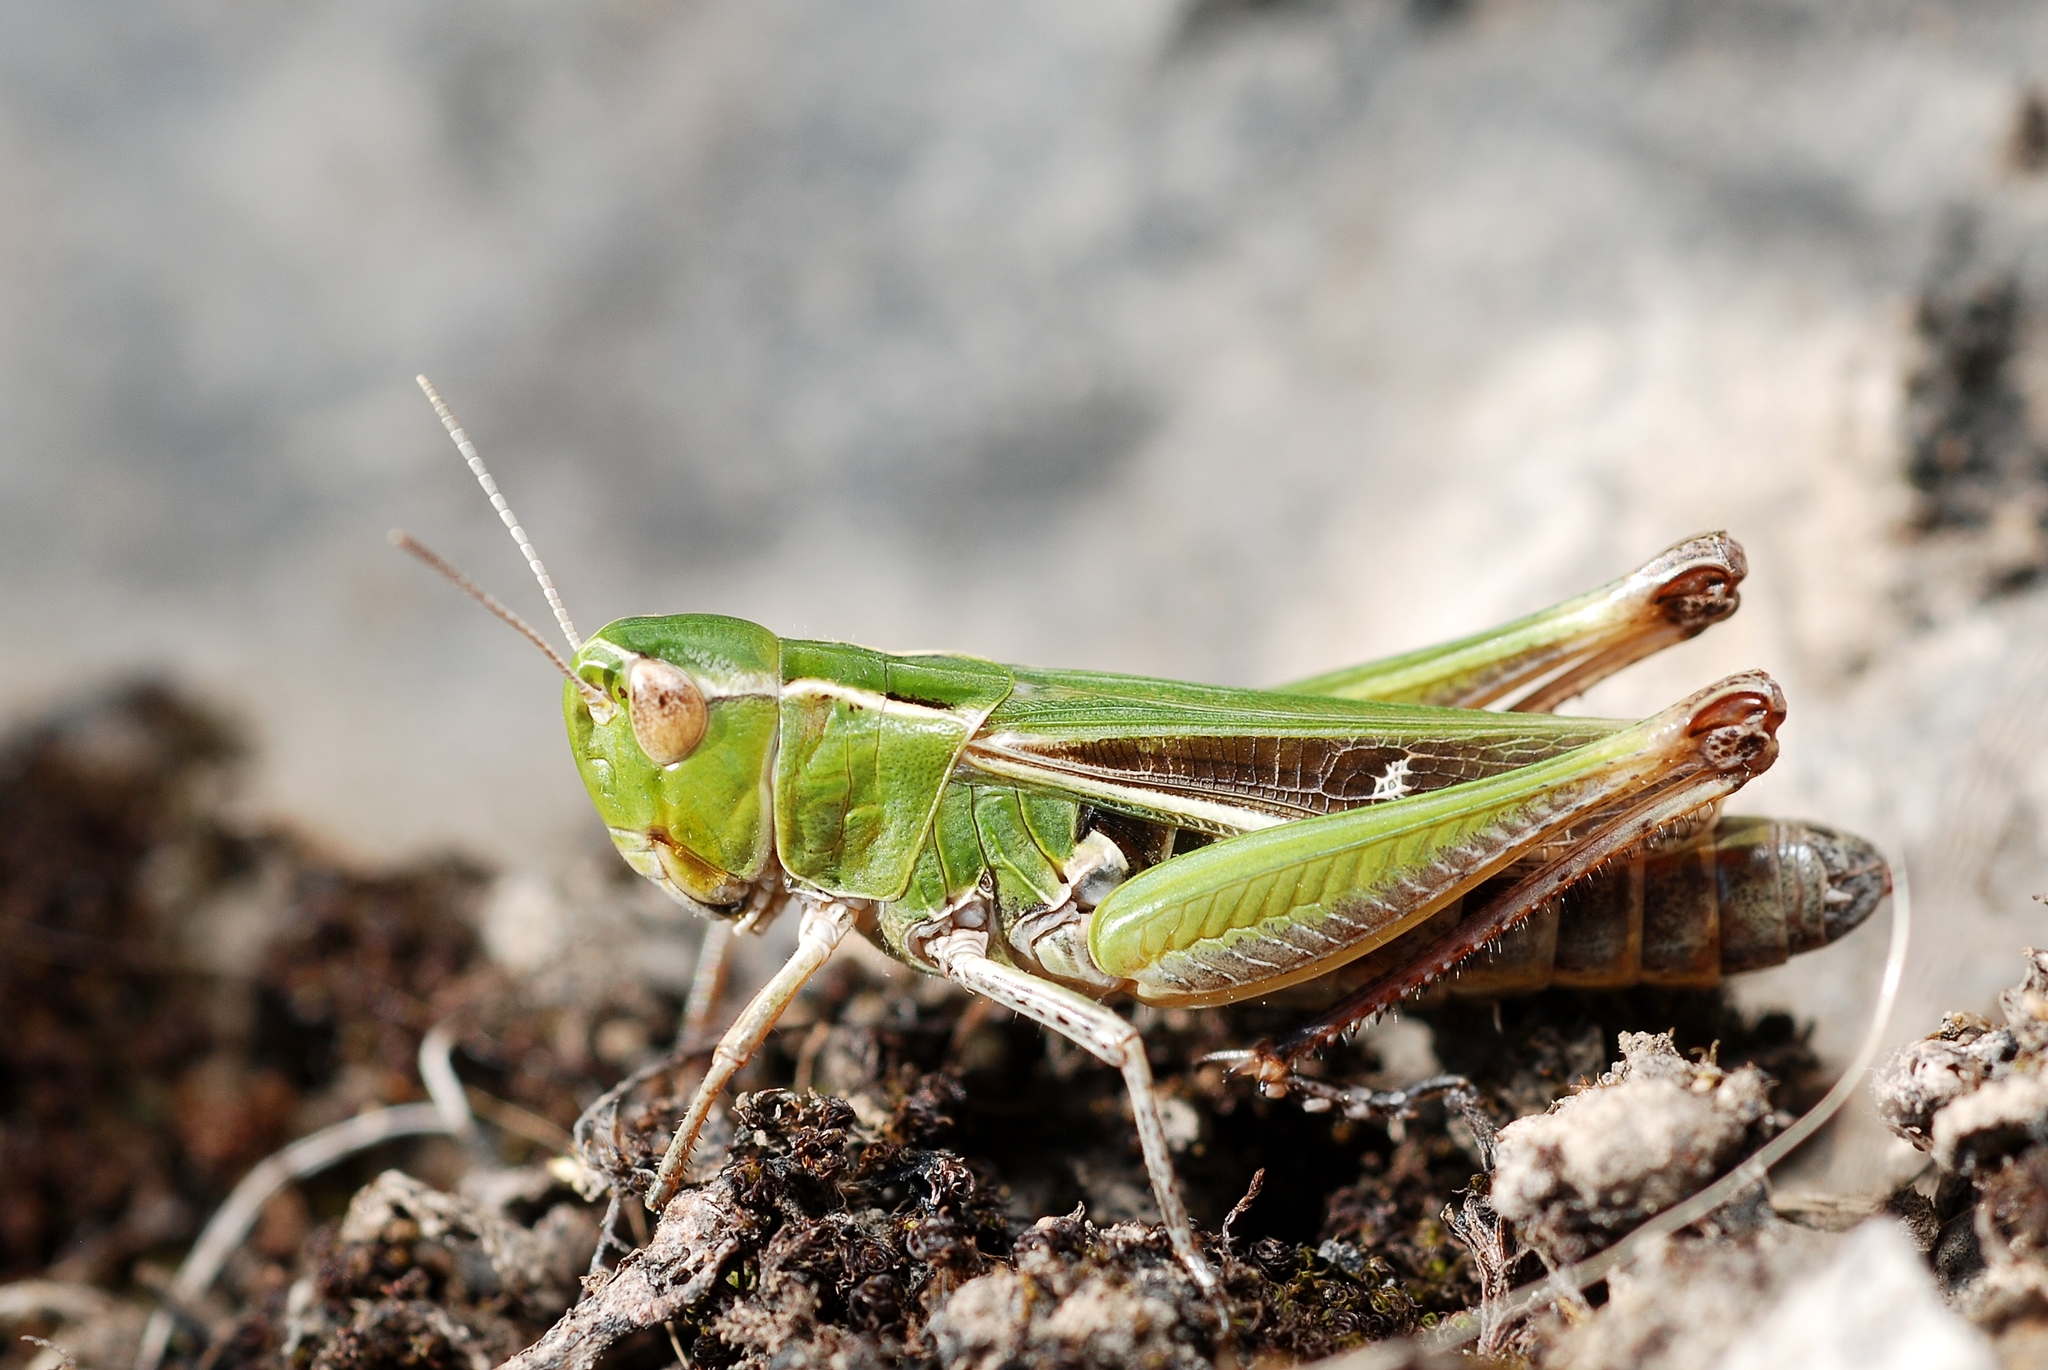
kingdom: Animalia
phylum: Arthropoda
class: Insecta
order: Orthoptera
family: Acrididae
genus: Stenobothrus
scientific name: Stenobothrus lineatus
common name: Stripe-winged grasshopper
